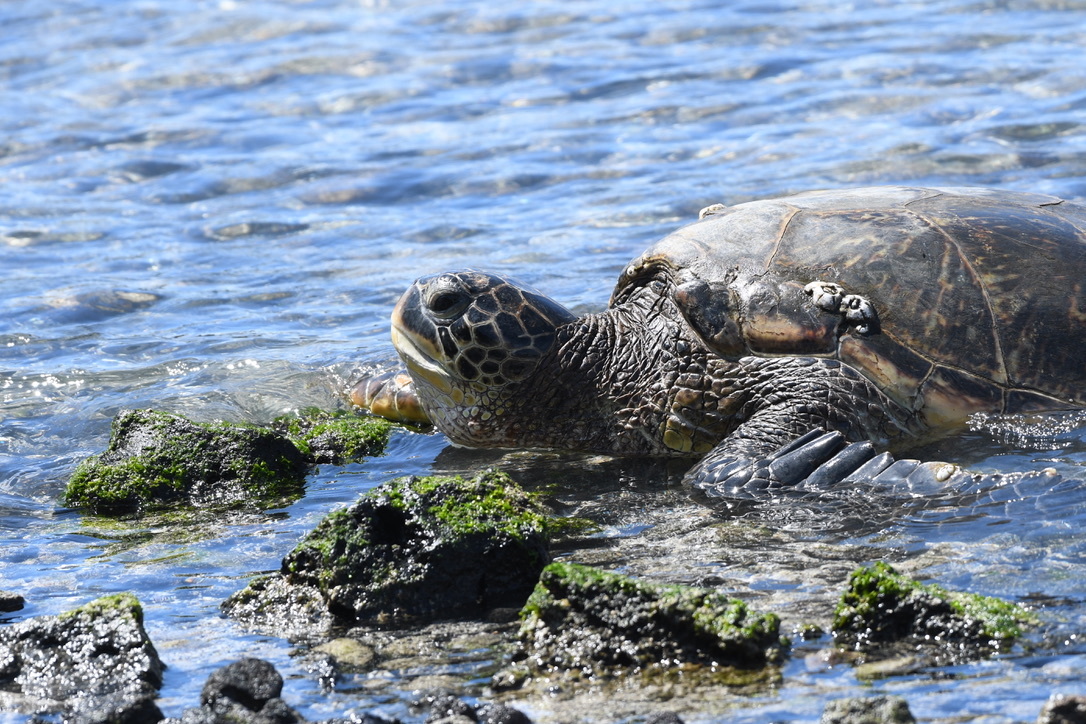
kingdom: Animalia
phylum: Chordata
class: Testudines
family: Cheloniidae
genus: Chelonia
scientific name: Chelonia mydas
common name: Green turtle
